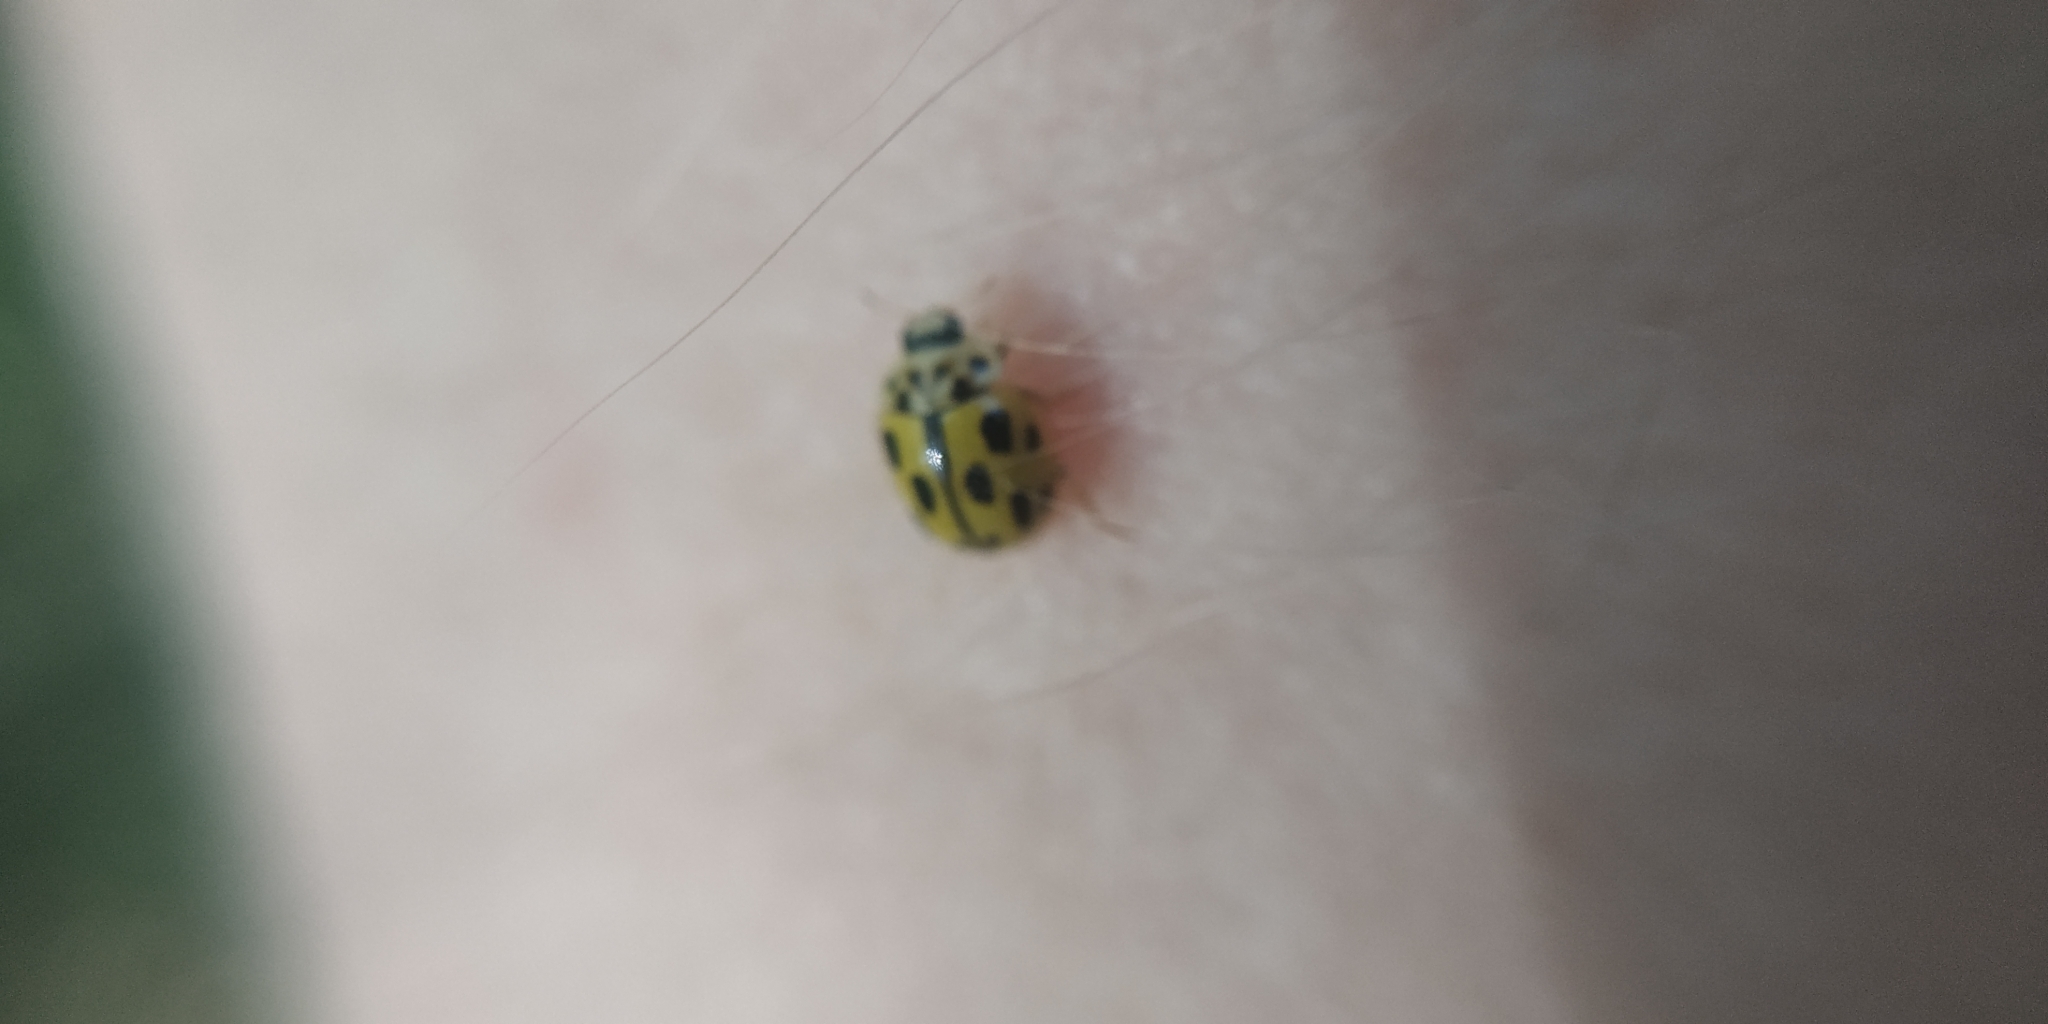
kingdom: Animalia
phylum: Arthropoda
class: Insecta
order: Coleoptera
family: Coccinellidae
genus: Propylaea
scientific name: Propylaea quatuordecimpunctata
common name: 14-spotted ladybird beetle
